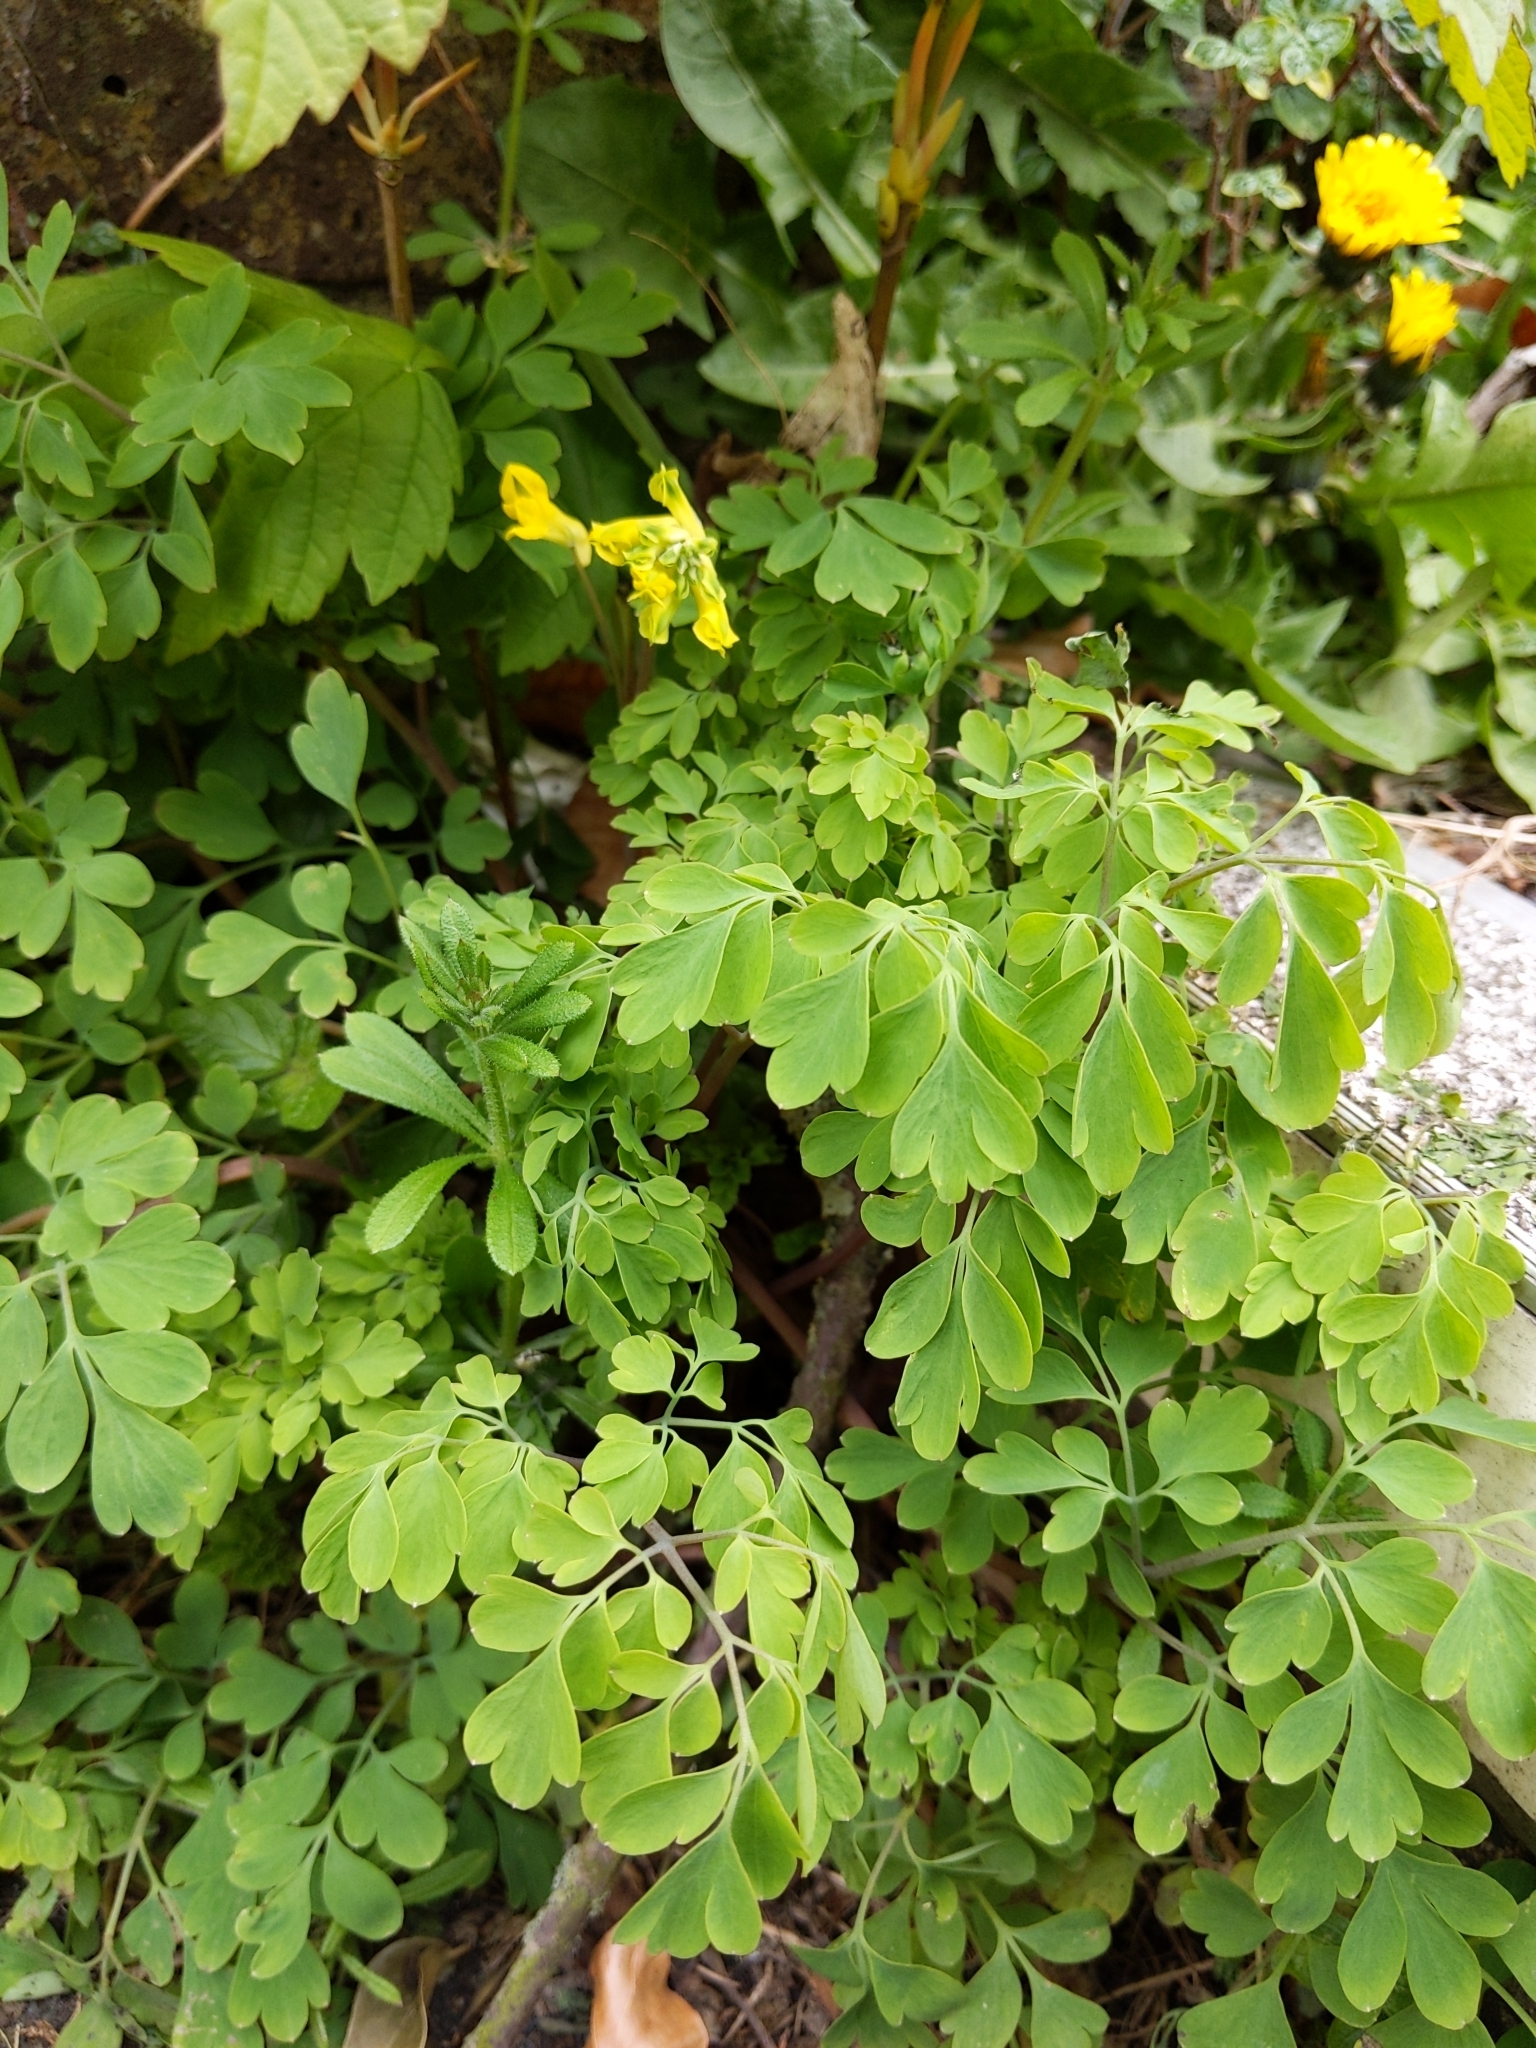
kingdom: Plantae
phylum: Tracheophyta
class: Magnoliopsida
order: Ranunculales
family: Papaveraceae
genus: Pseudofumaria
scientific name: Pseudofumaria lutea
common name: Yellow corydalis
